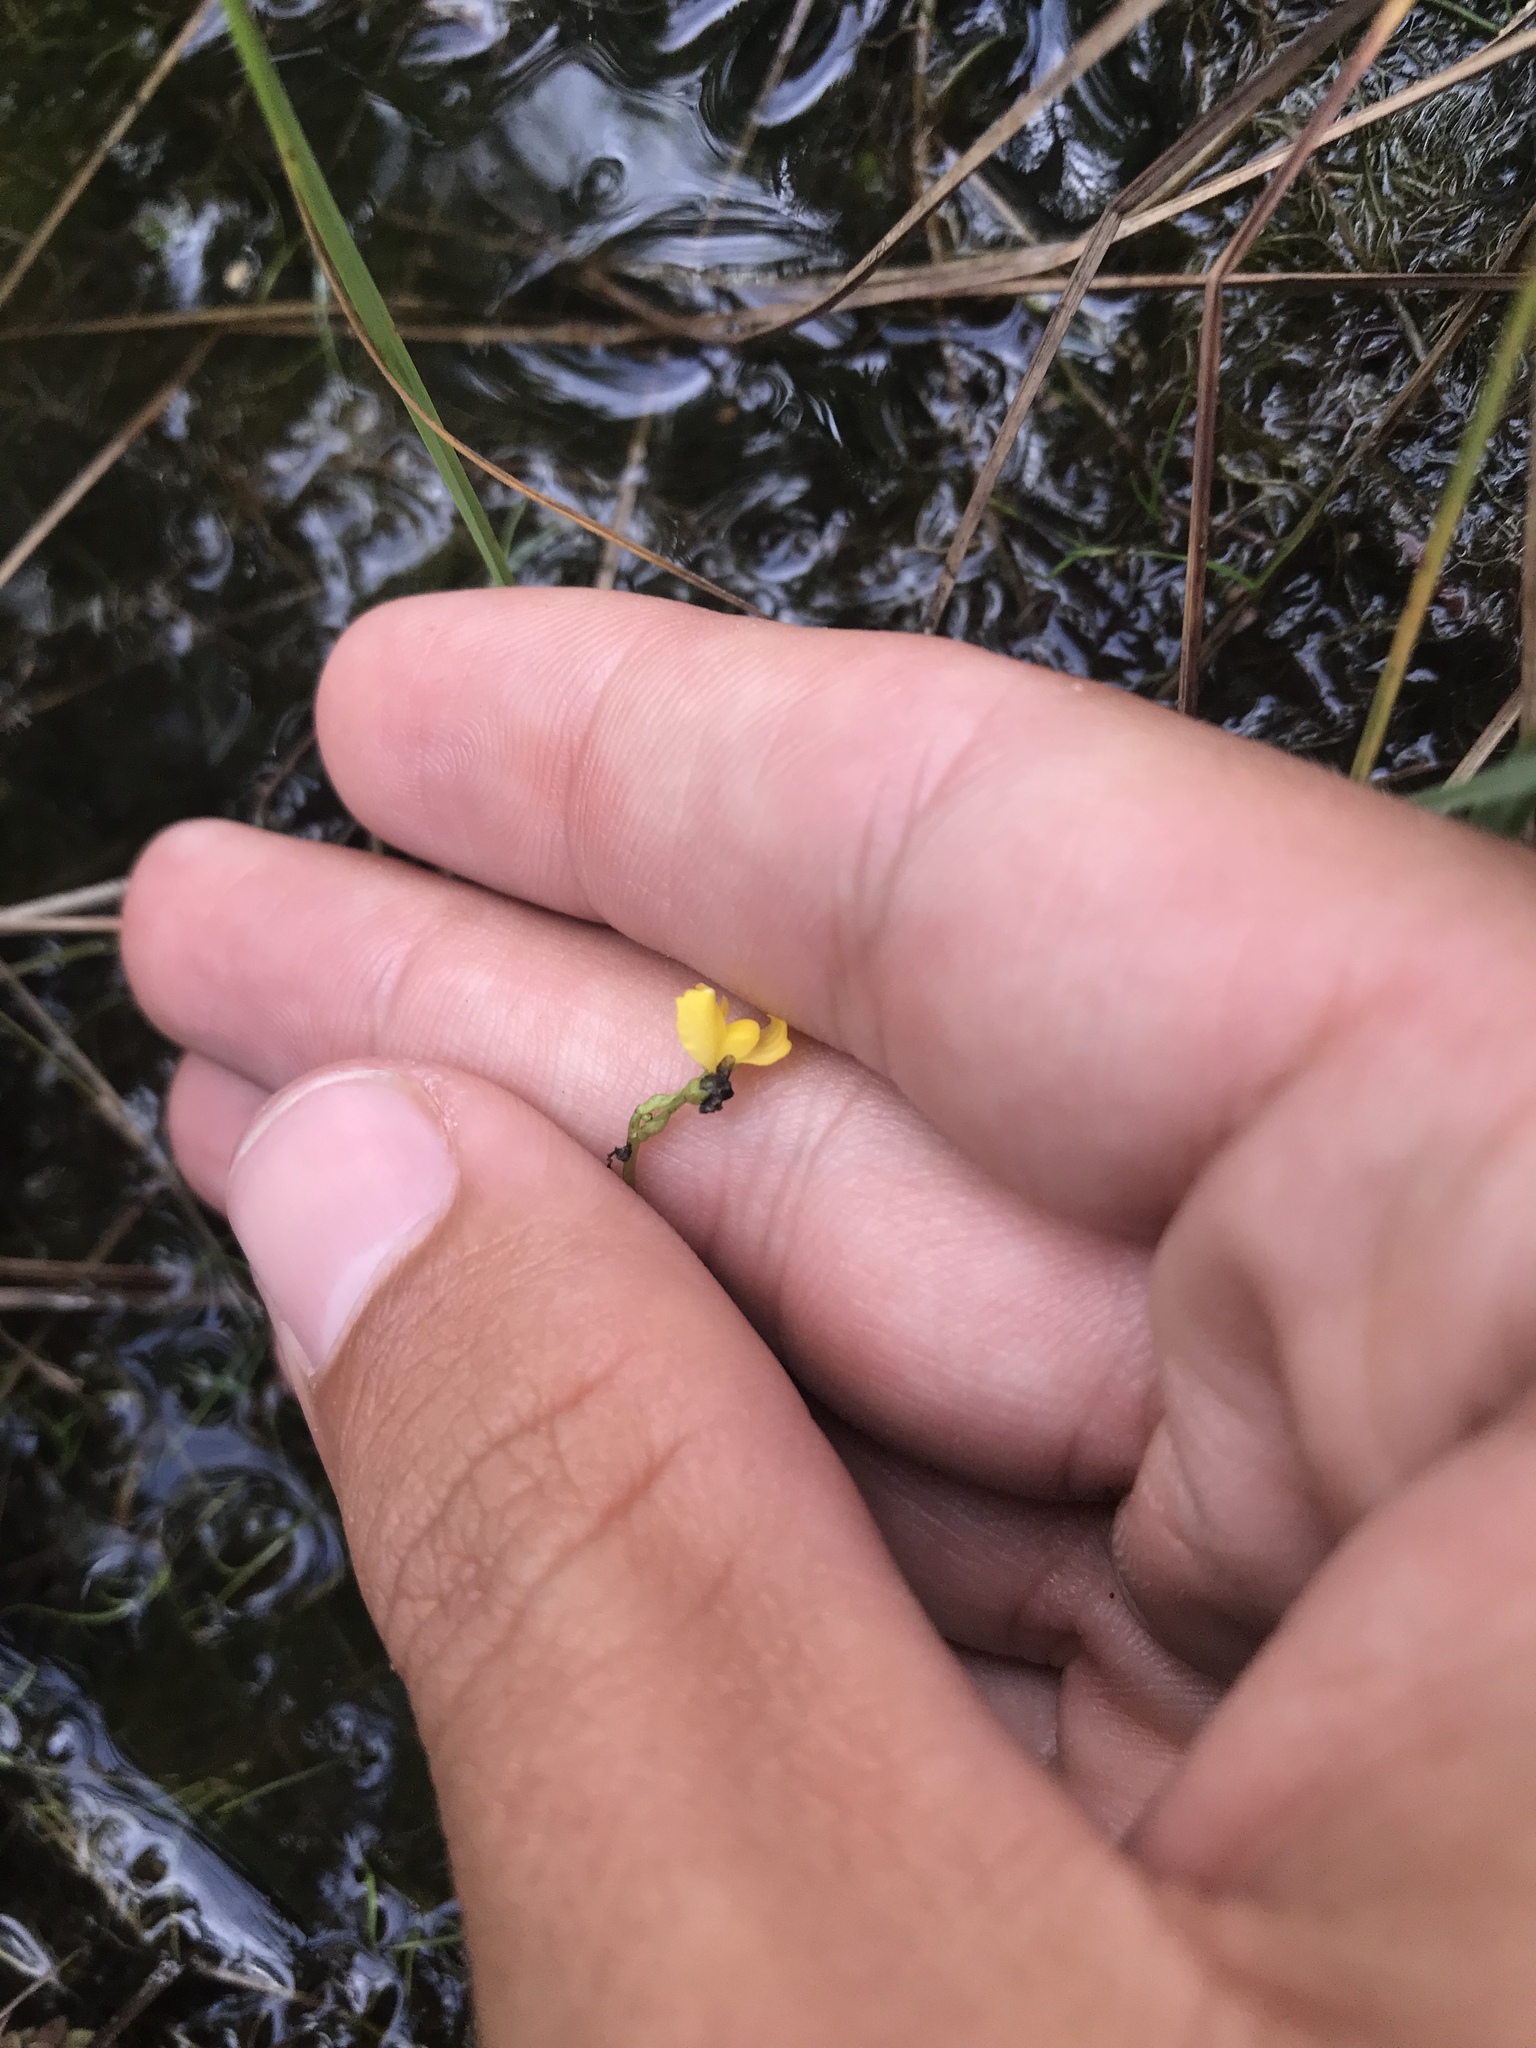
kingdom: Plantae
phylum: Tracheophyta
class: Magnoliopsida
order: Lamiales
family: Lentibulariaceae
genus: Utricularia
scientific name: Utricularia geminiscapa
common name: Hidden-fruit bladderwort
